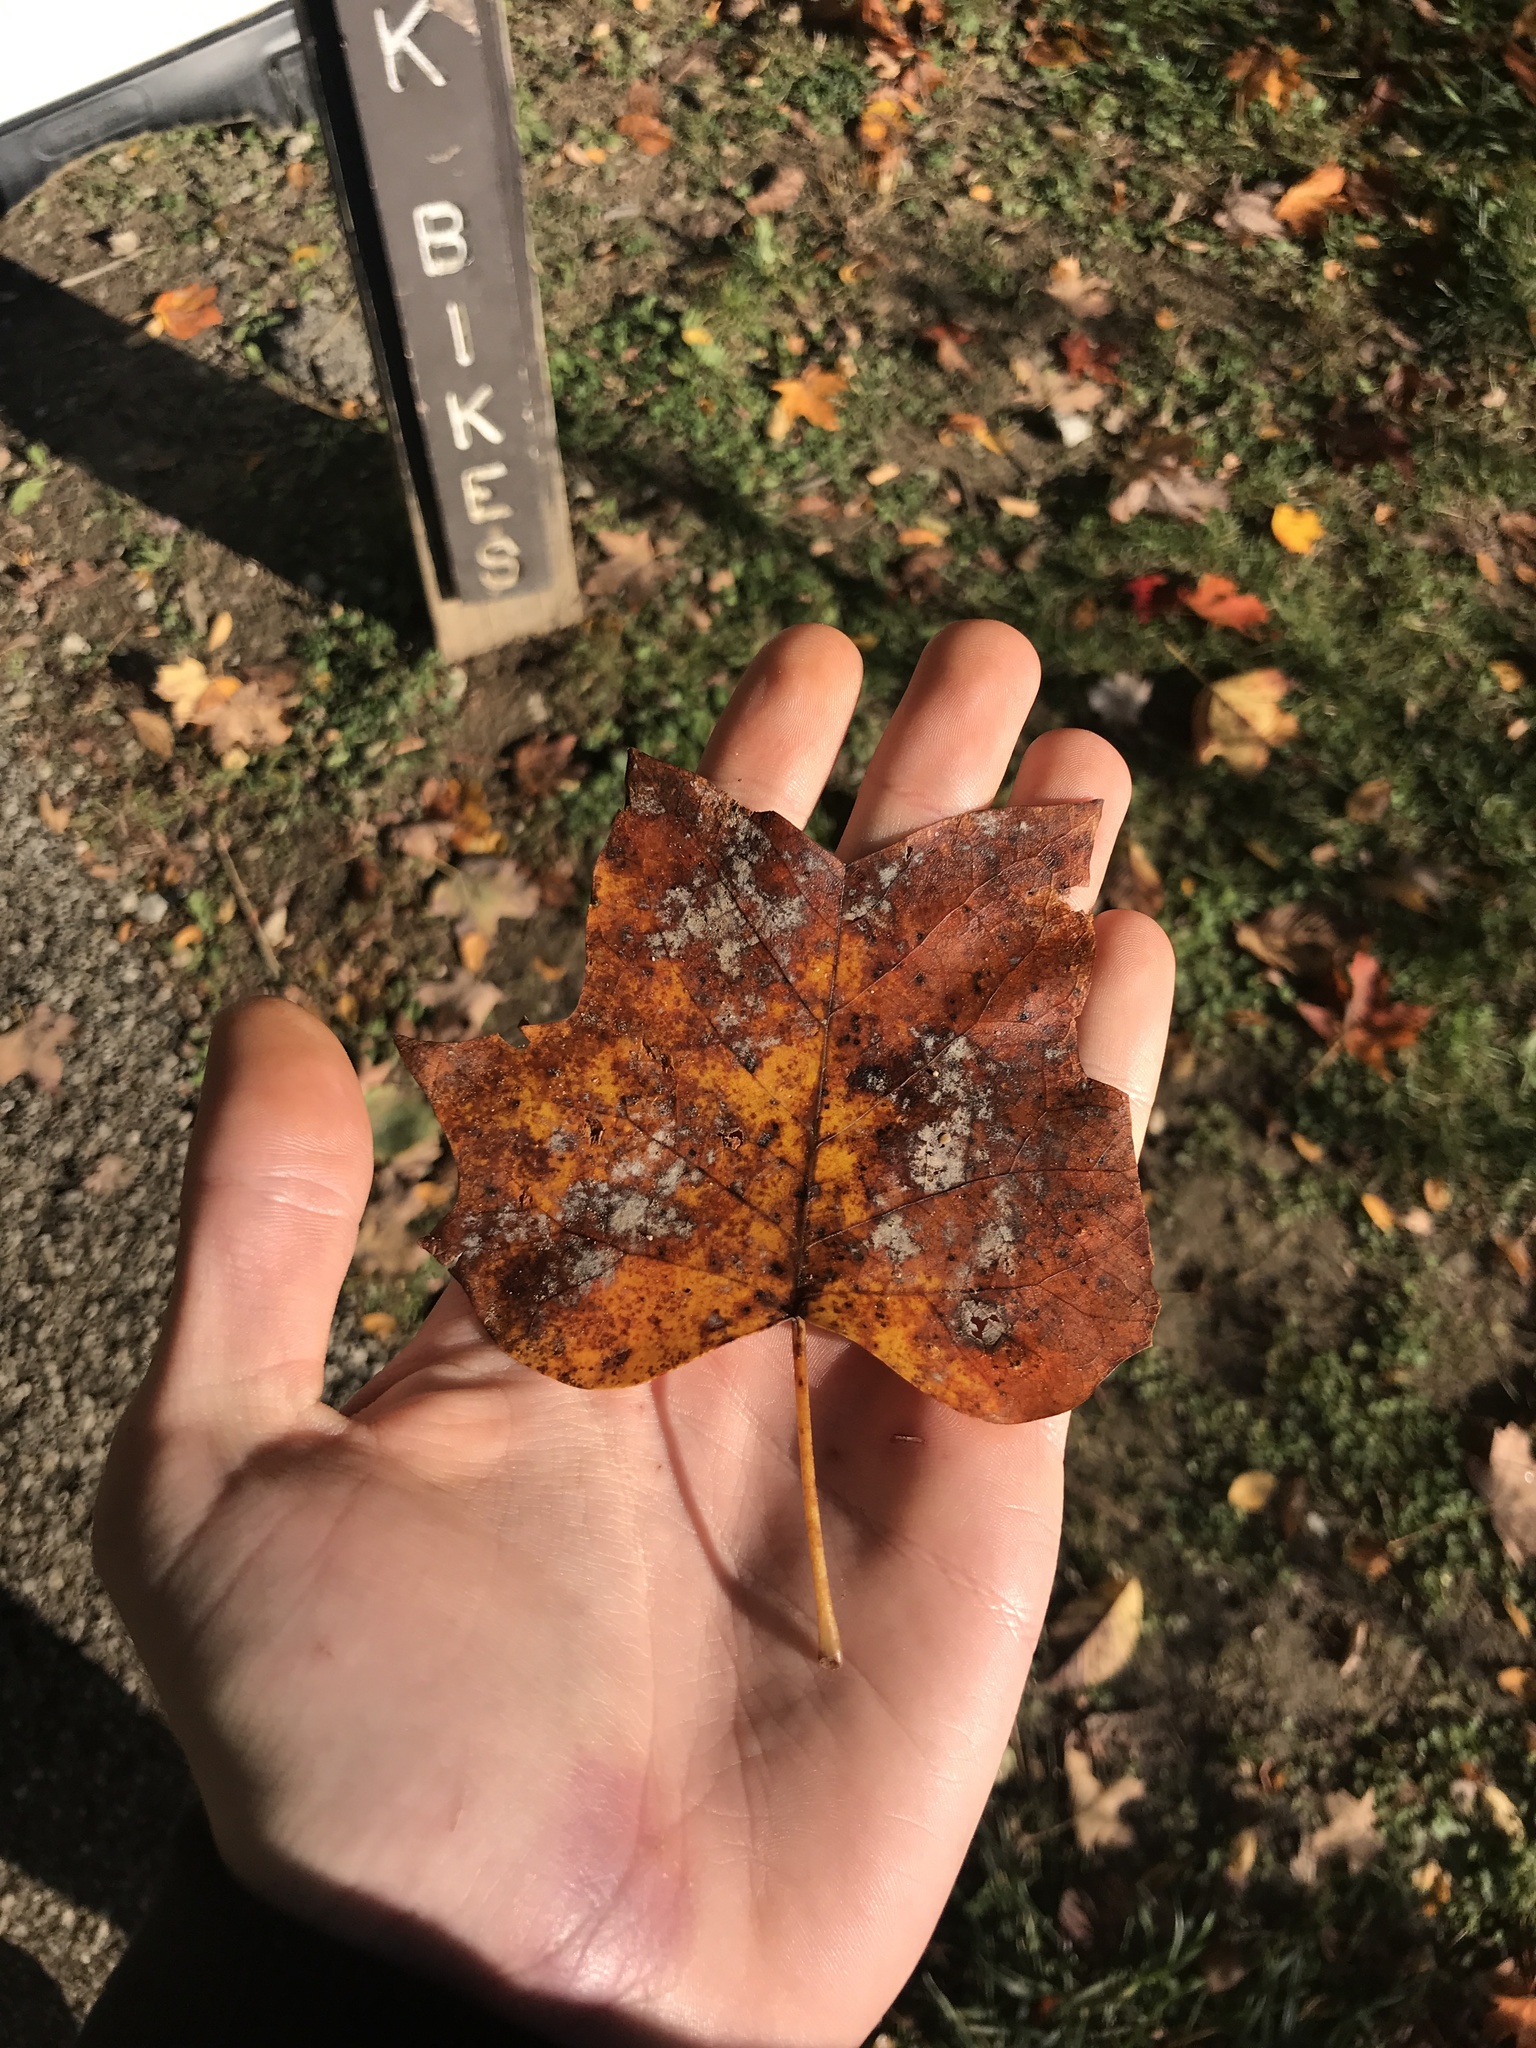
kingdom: Plantae
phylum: Tracheophyta
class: Magnoliopsida
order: Magnoliales
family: Magnoliaceae
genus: Liriodendron
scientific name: Liriodendron tulipifera
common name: Tulip tree
